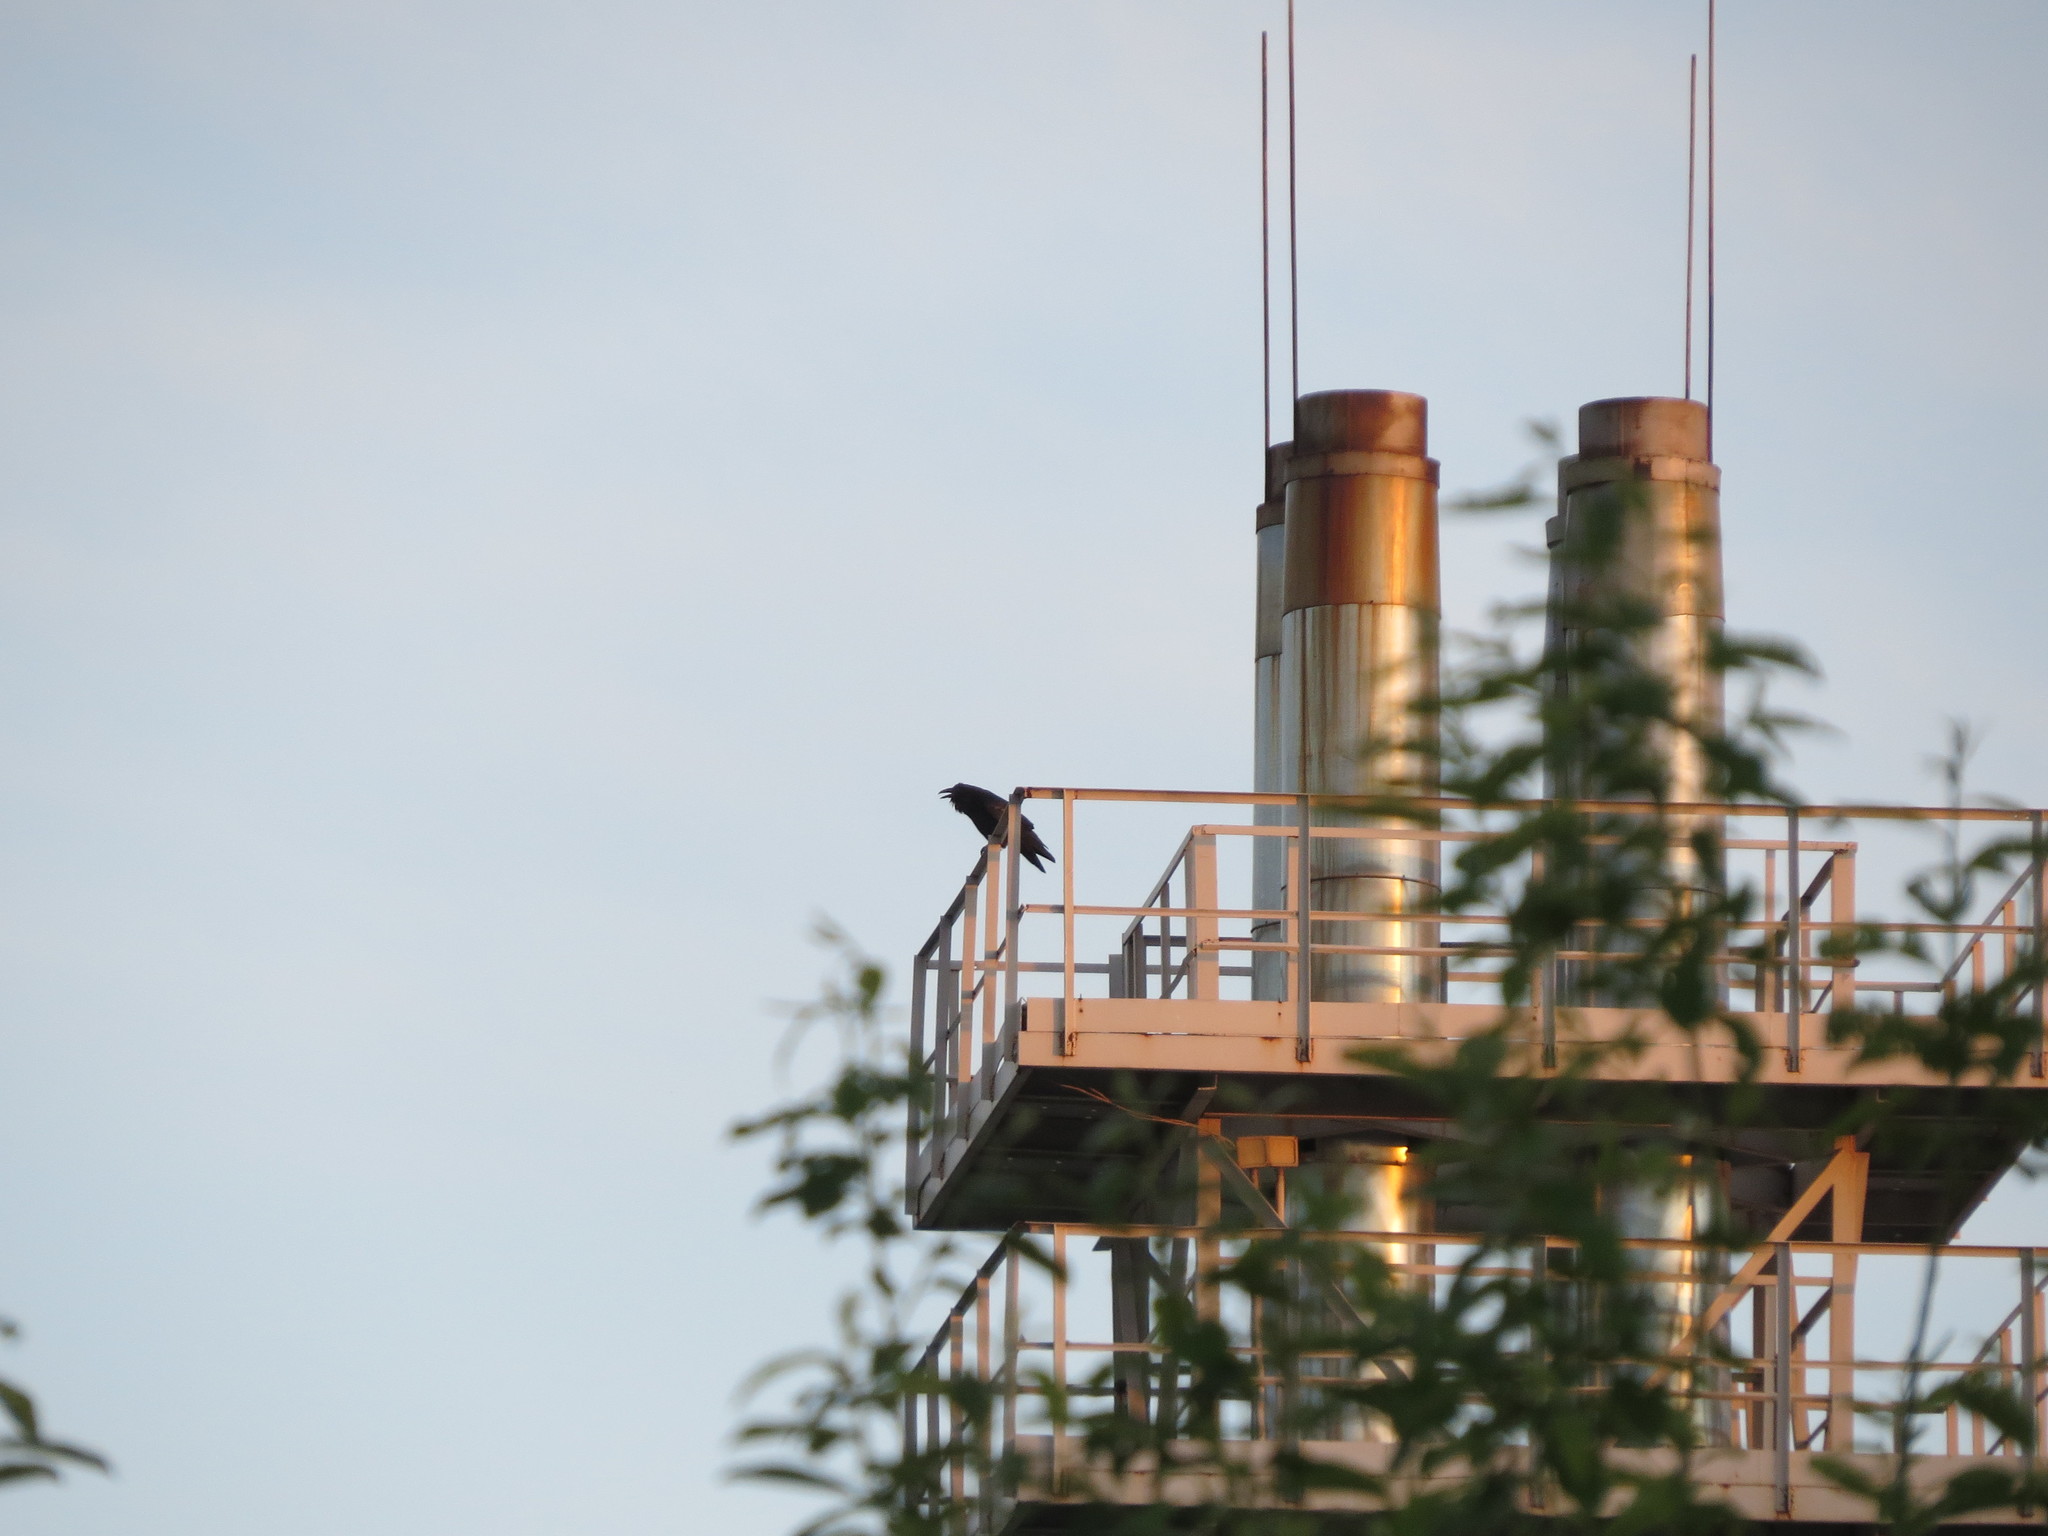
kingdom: Animalia
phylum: Chordata
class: Aves
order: Passeriformes
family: Corvidae
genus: Corvus
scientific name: Corvus corax
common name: Common raven
